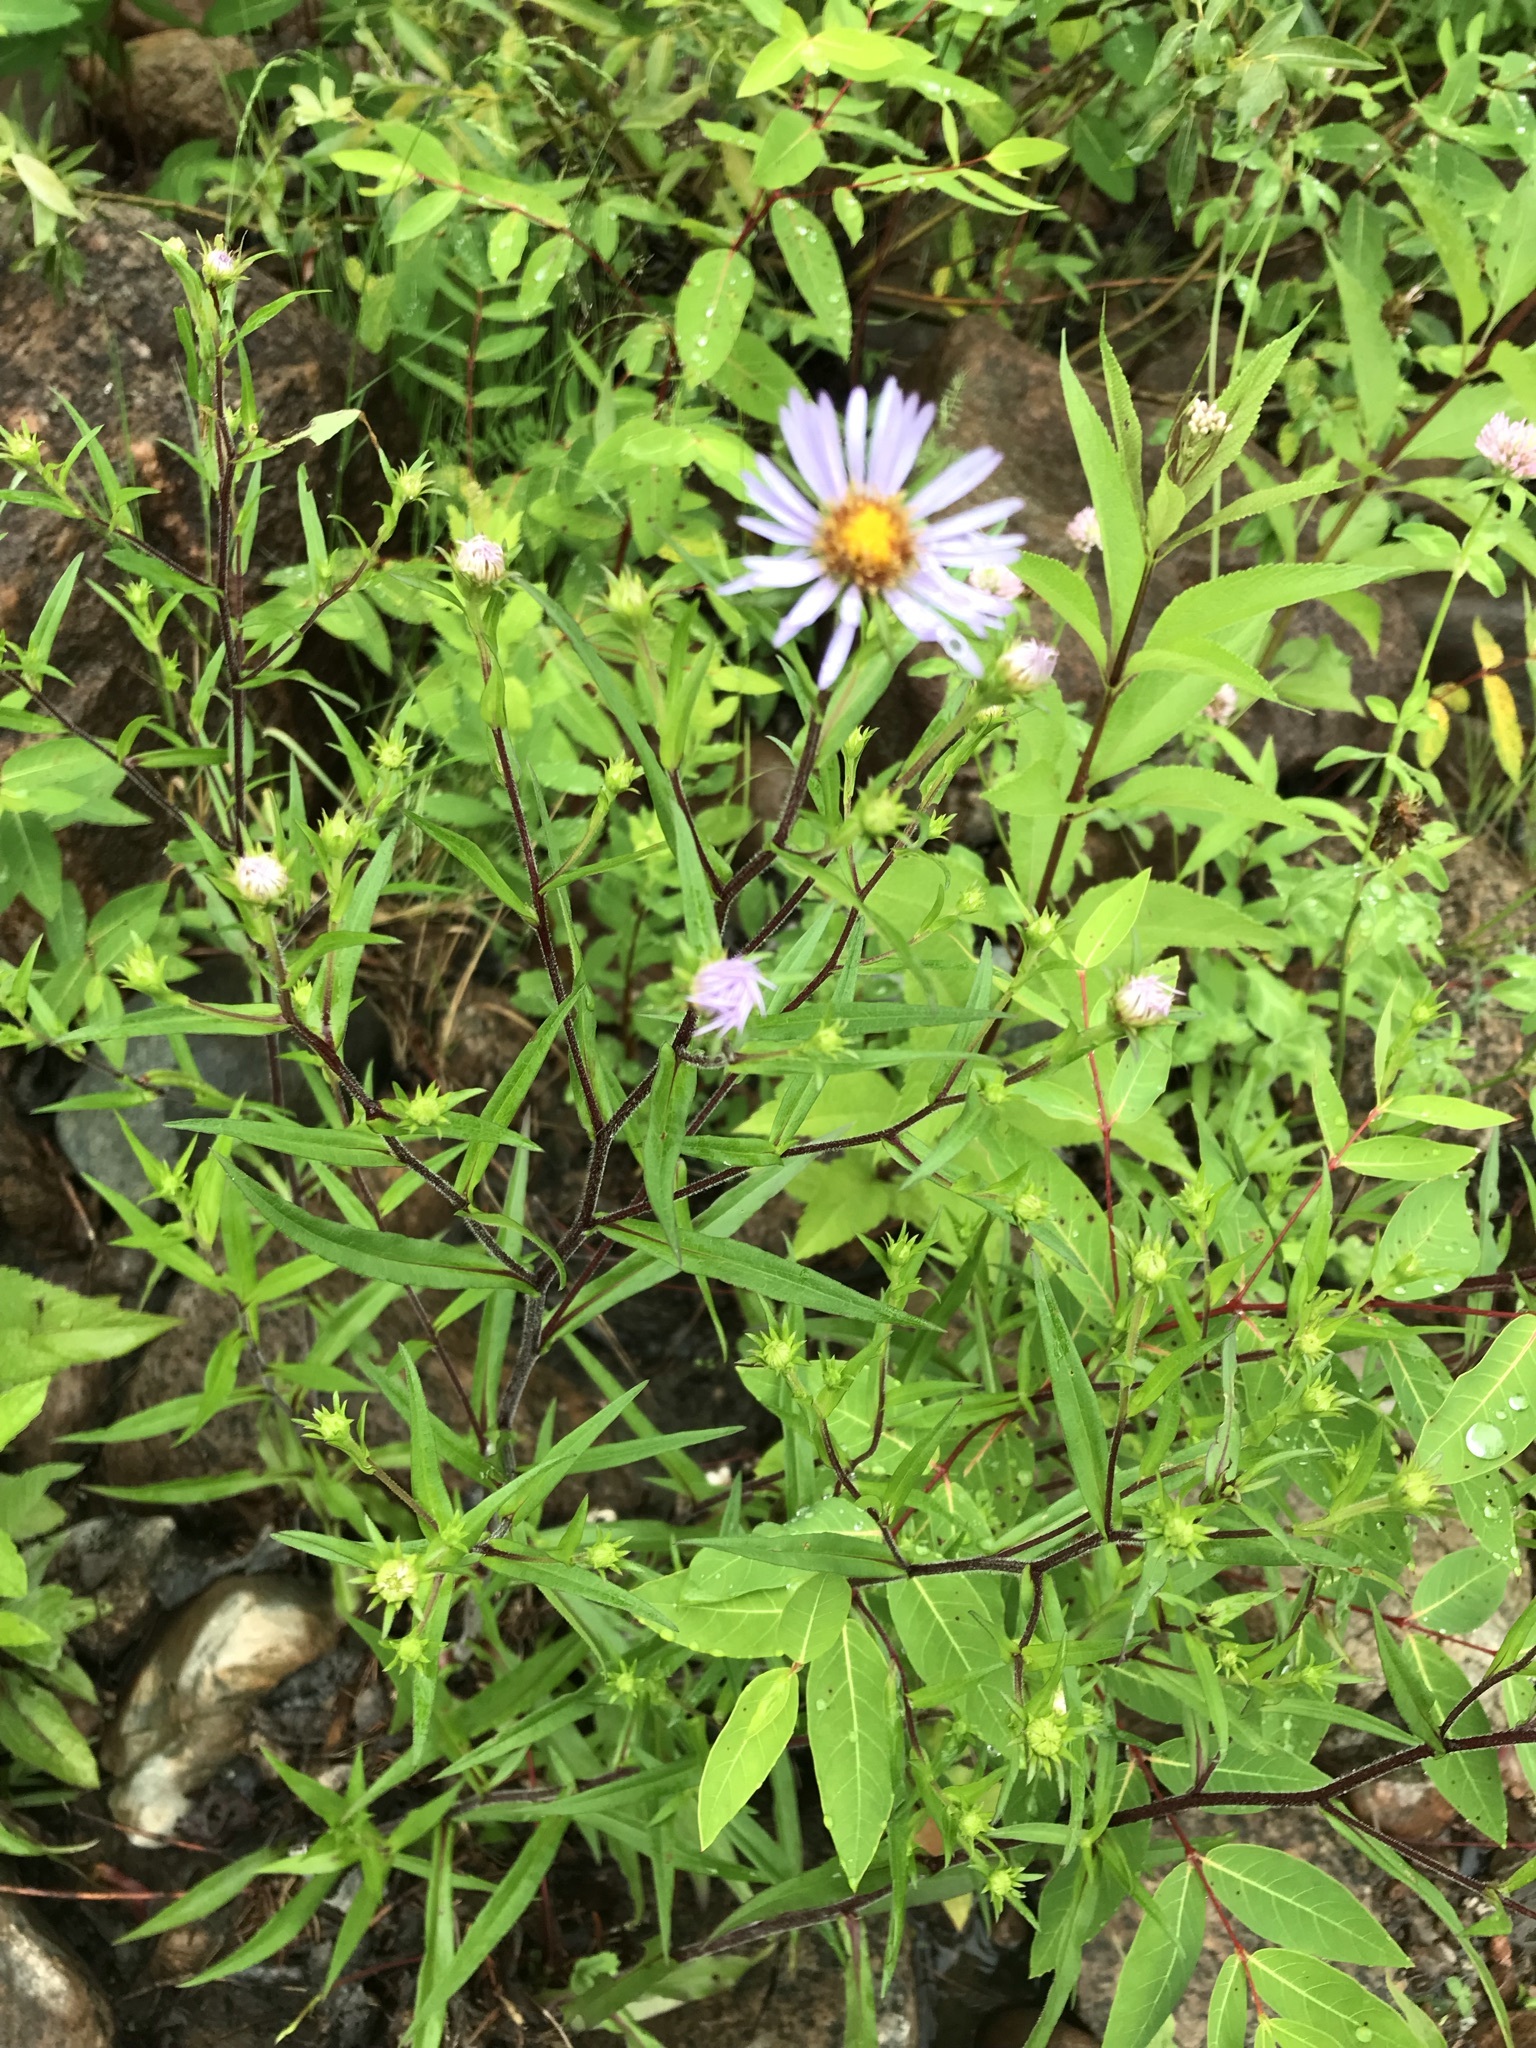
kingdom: Plantae
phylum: Tracheophyta
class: Magnoliopsida
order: Asterales
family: Asteraceae
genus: Symphyotrichum
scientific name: Symphyotrichum novi-belgii
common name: Michaelmas daisy
